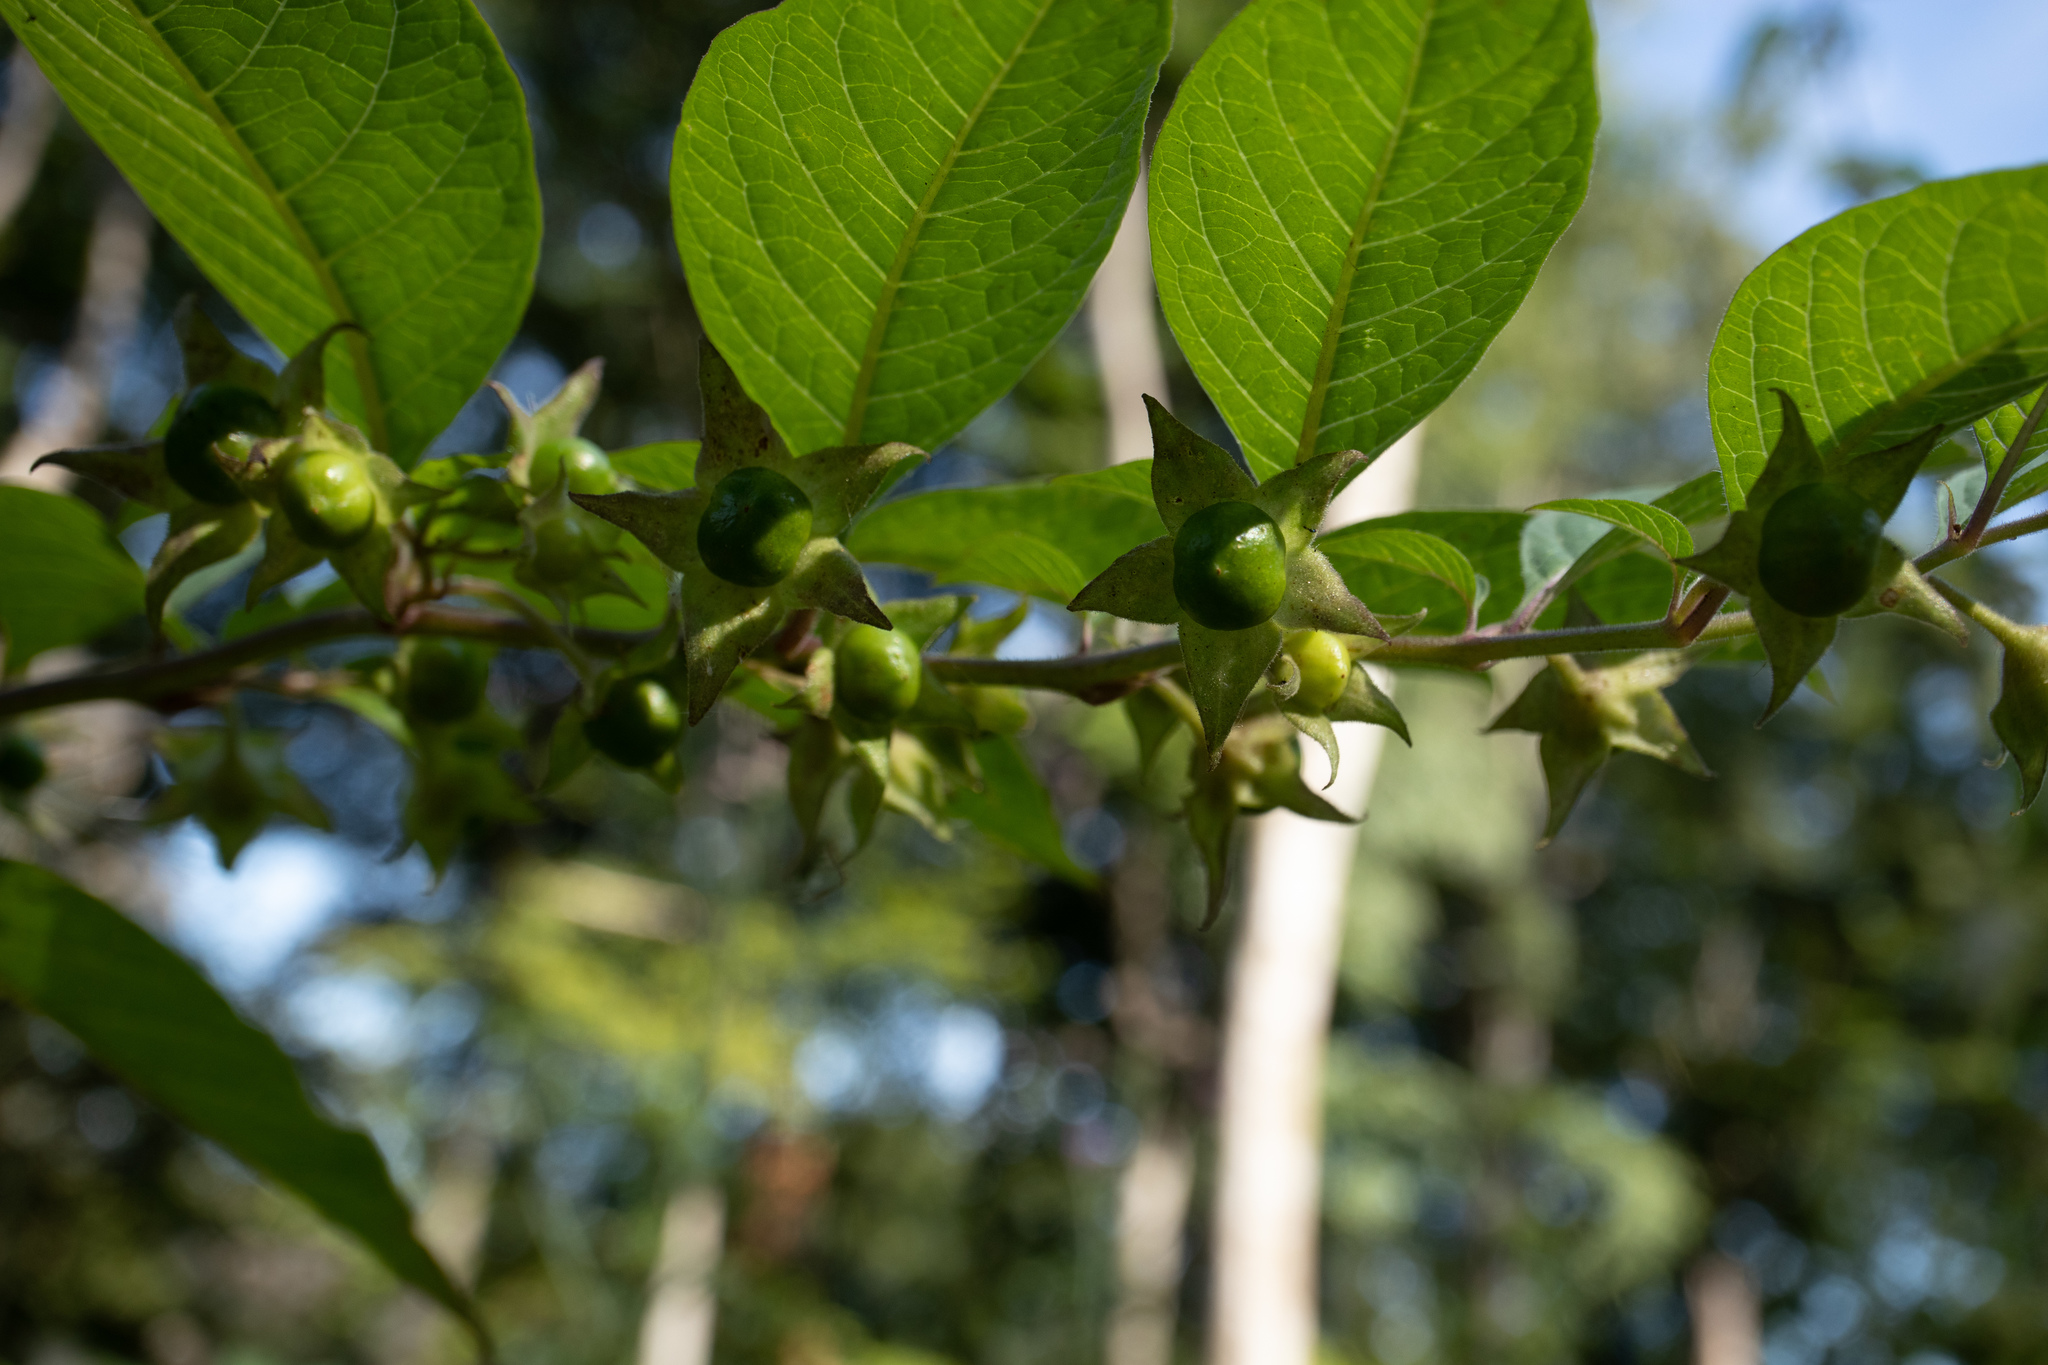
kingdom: Plantae
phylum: Tracheophyta
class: Magnoliopsida
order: Solanales
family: Solanaceae
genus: Atropa
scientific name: Atropa belladonna
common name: Deadly nightshade
